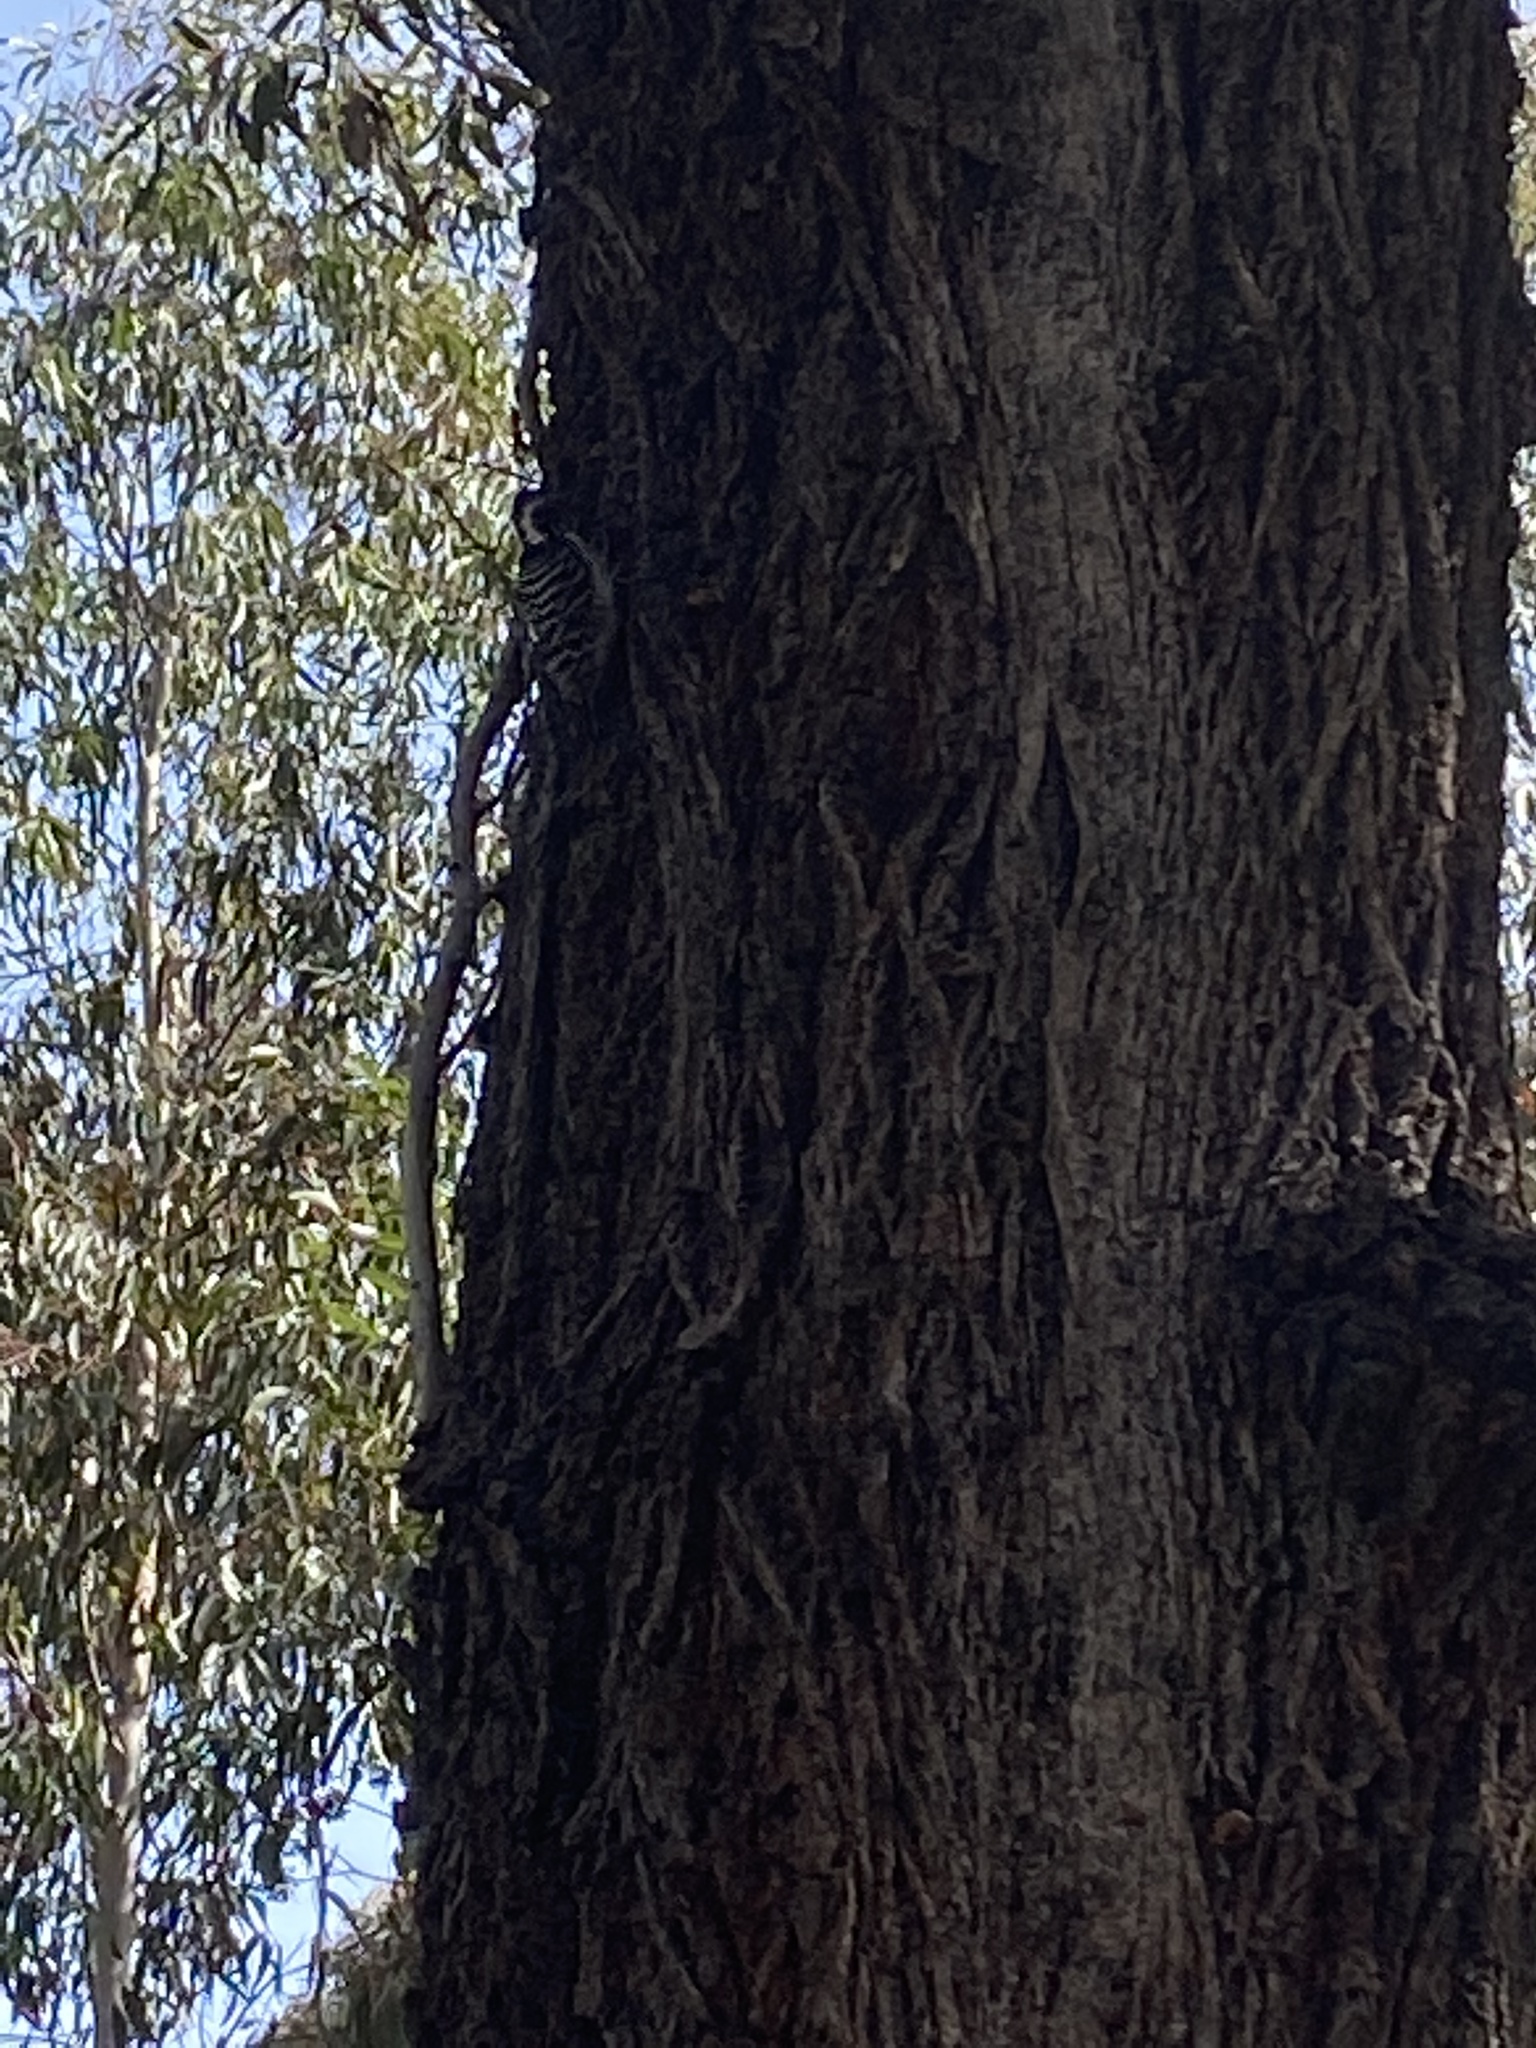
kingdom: Animalia
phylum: Chordata
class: Aves
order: Piciformes
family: Picidae
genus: Dryobates
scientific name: Dryobates nuttallii
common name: Nuttall's woodpecker
